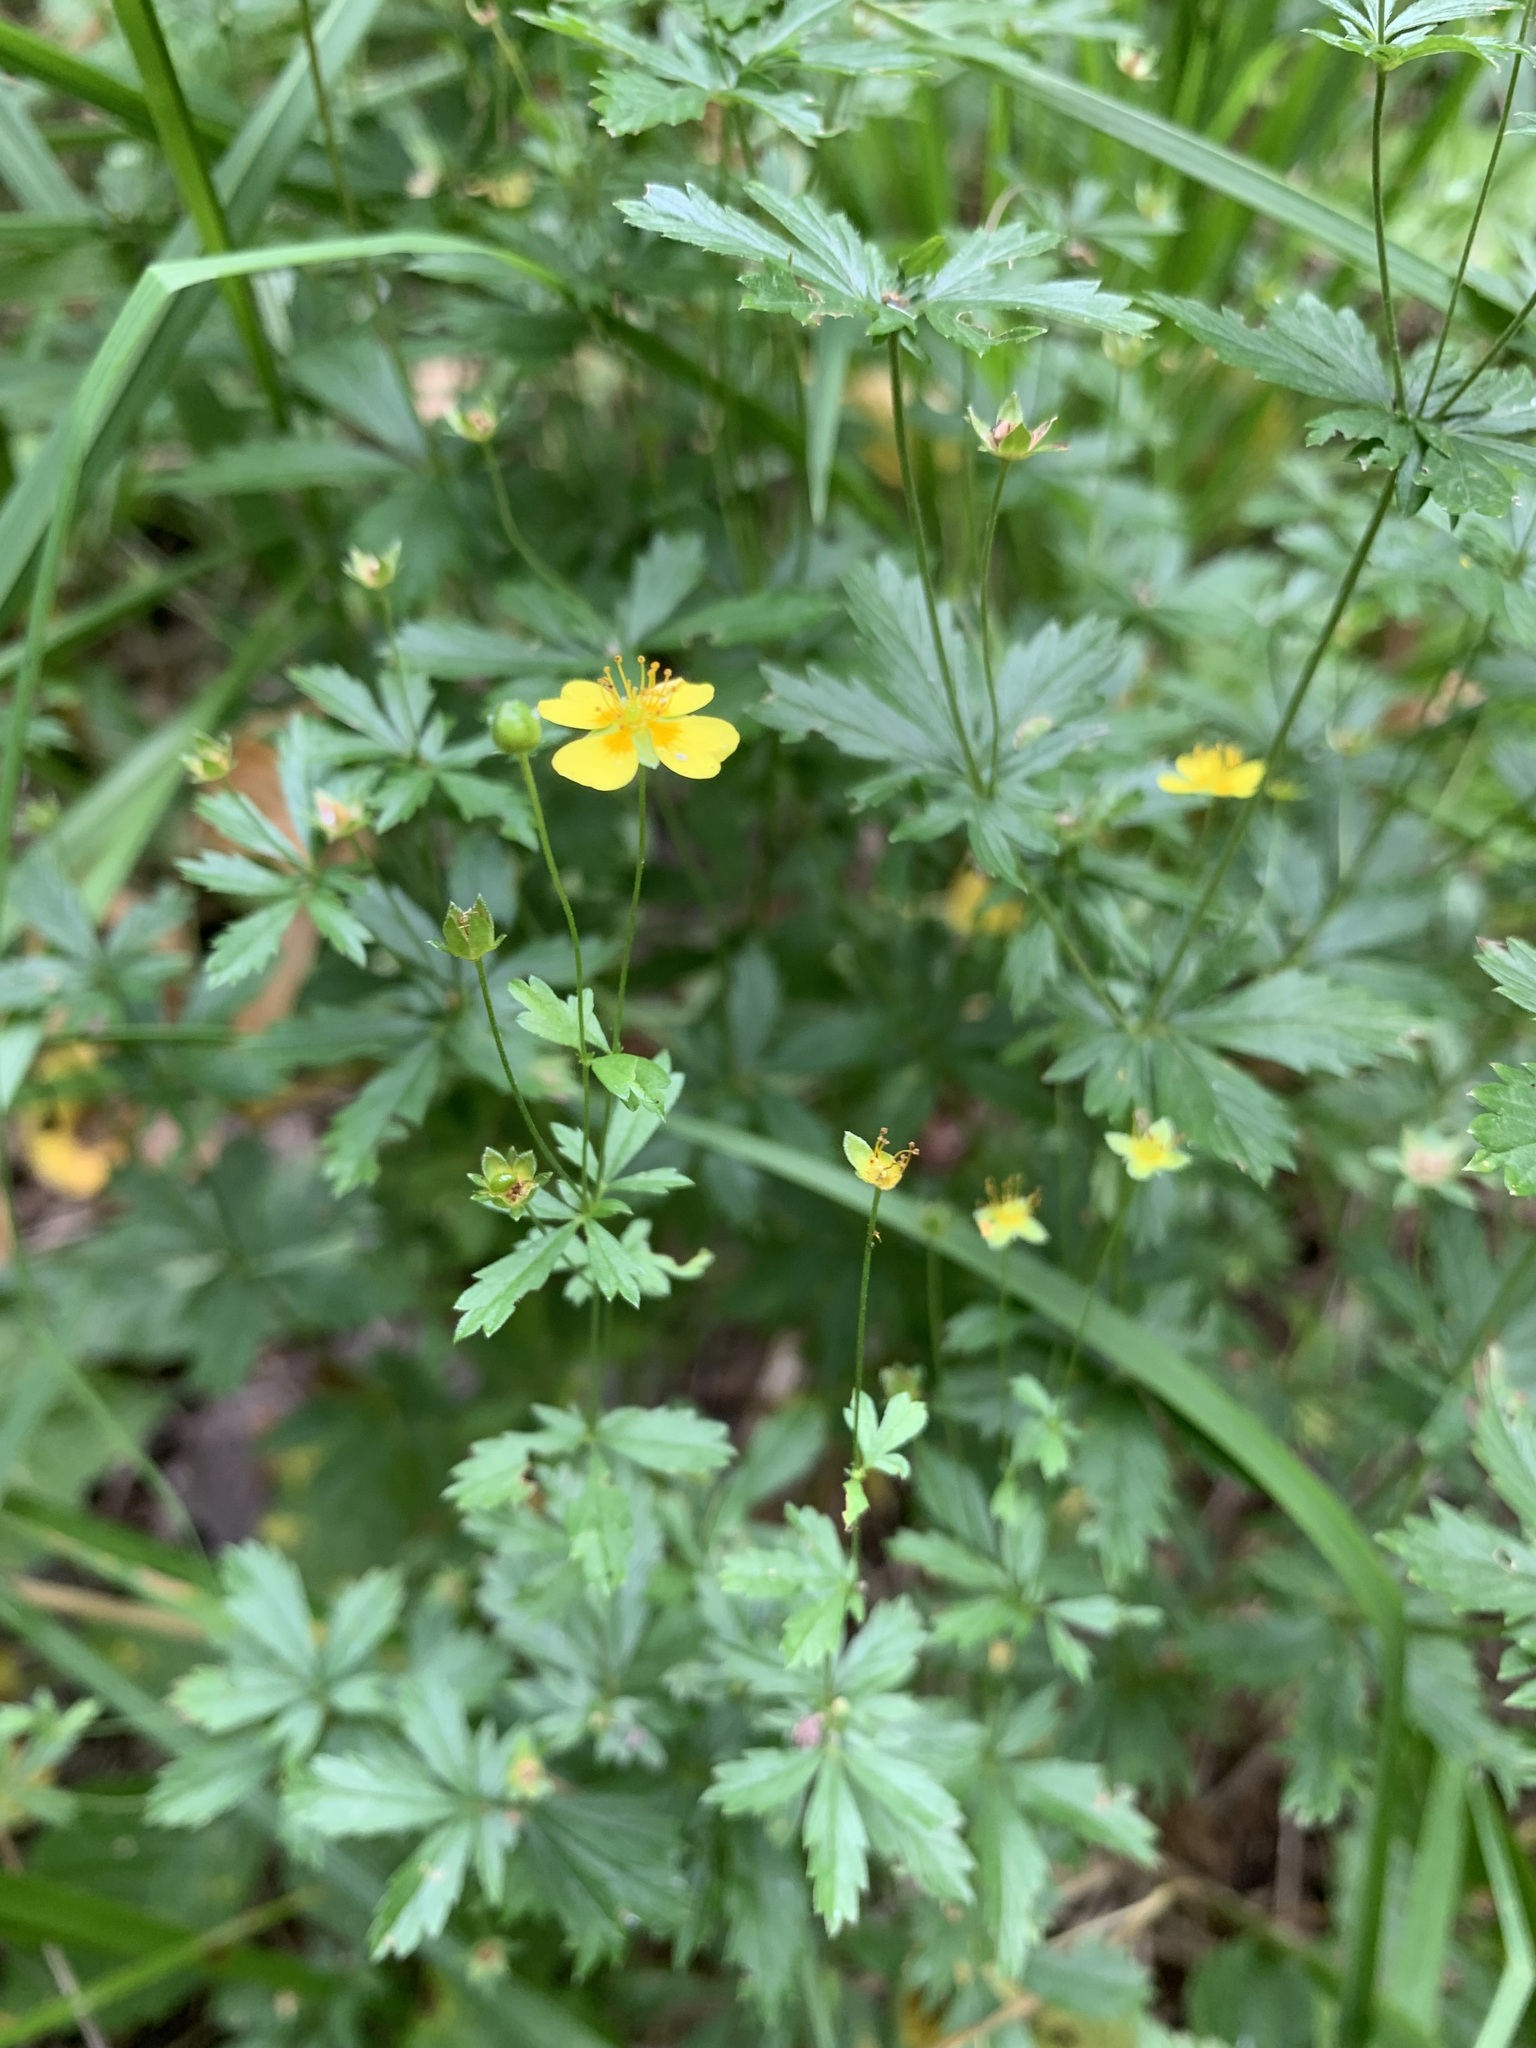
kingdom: Plantae
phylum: Tracheophyta
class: Magnoliopsida
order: Rosales
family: Rosaceae
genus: Potentilla
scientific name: Potentilla erecta
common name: Tormentil
